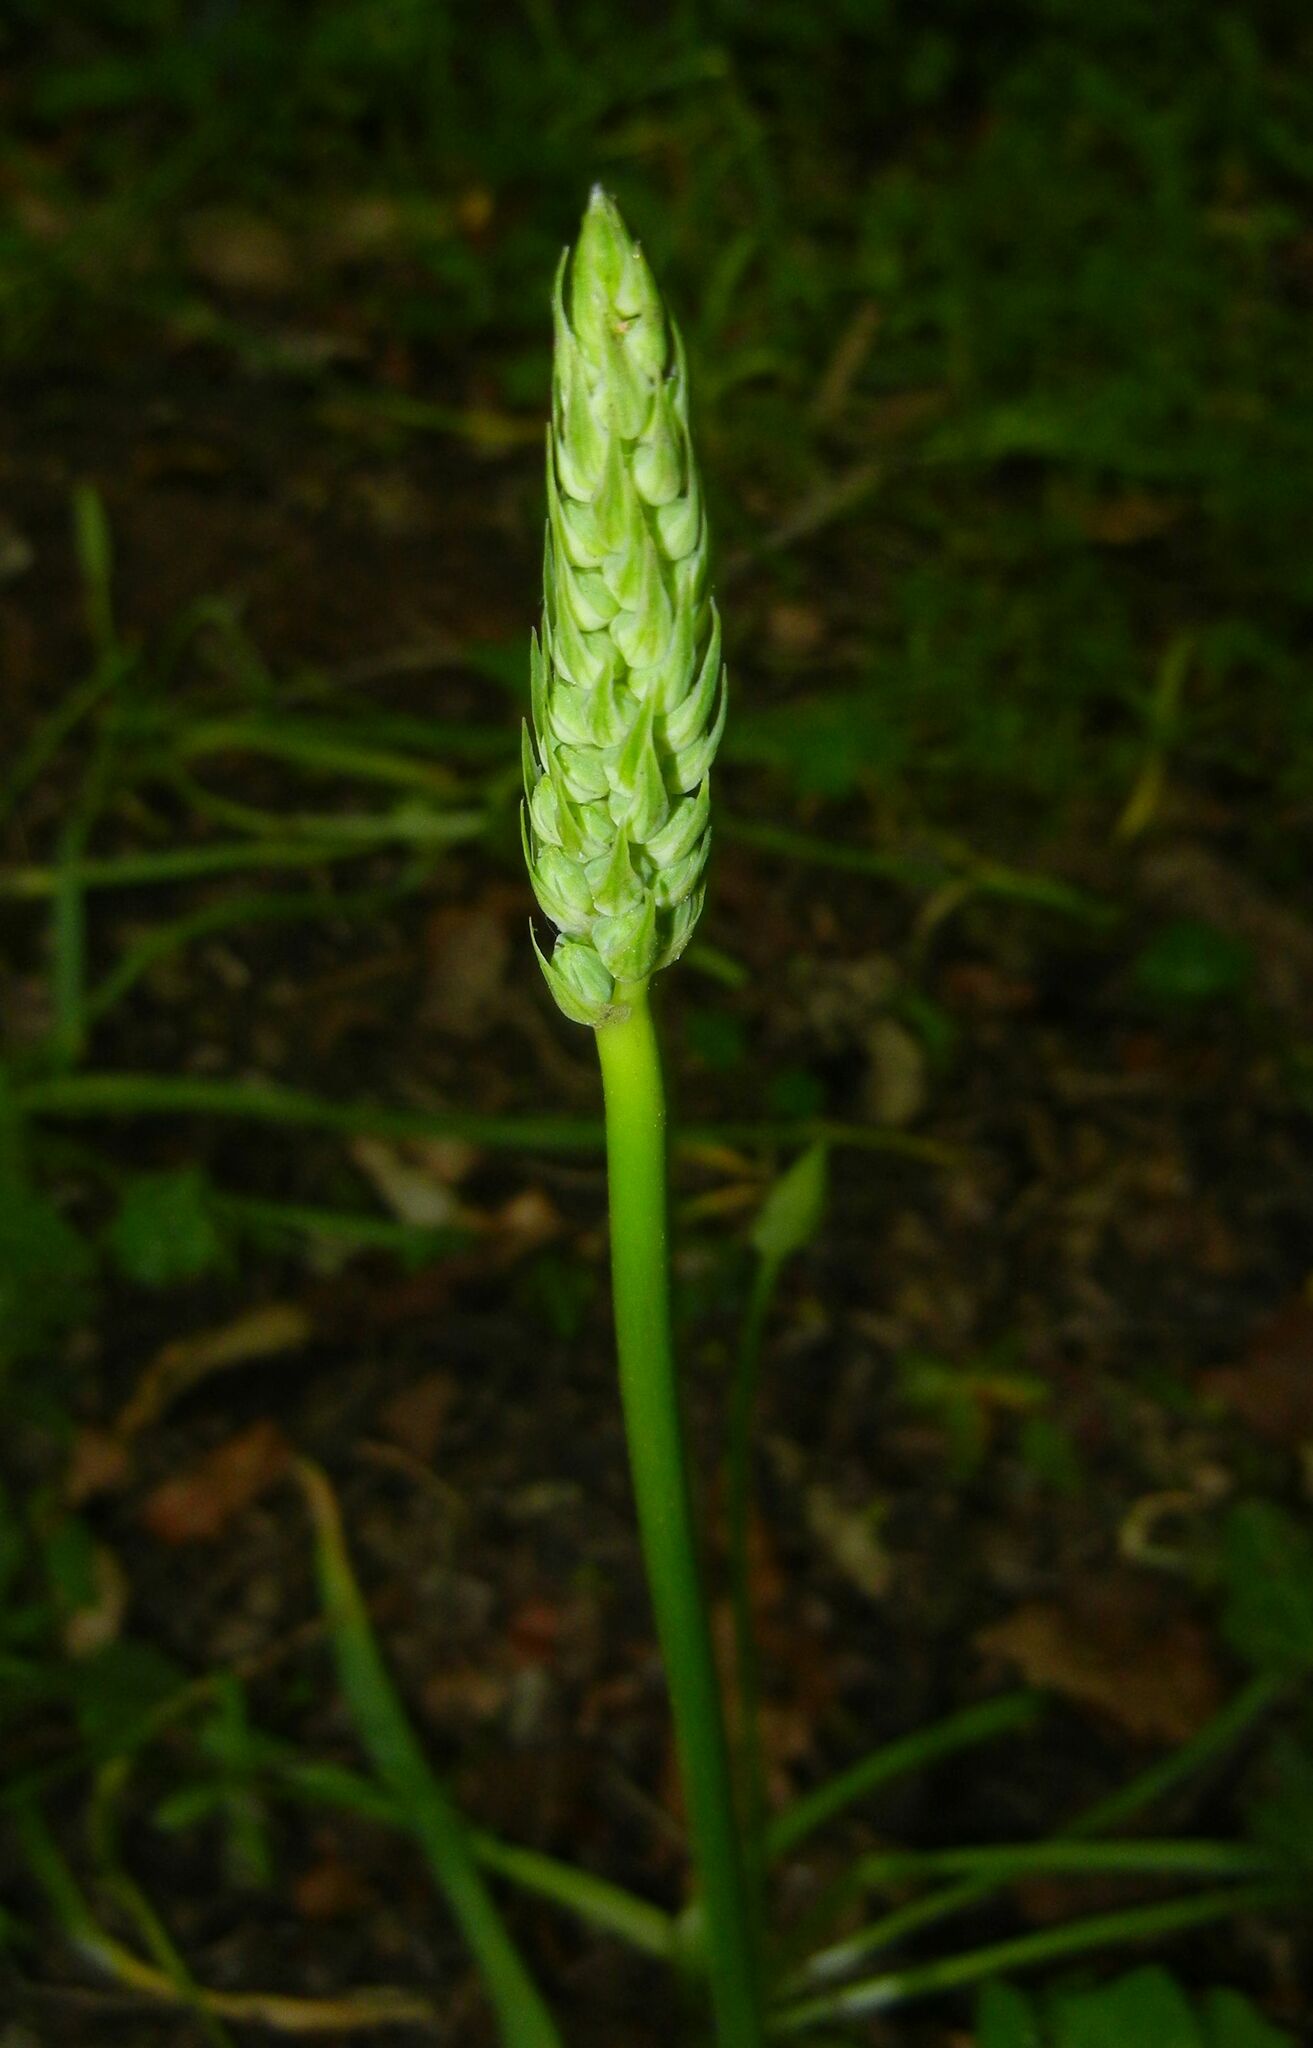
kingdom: Plantae
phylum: Tracheophyta
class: Liliopsida
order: Asparagales
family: Asparagaceae
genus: Ornithogalum
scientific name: Ornithogalum pyrenaicum
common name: Spiked star-of-bethlehem
